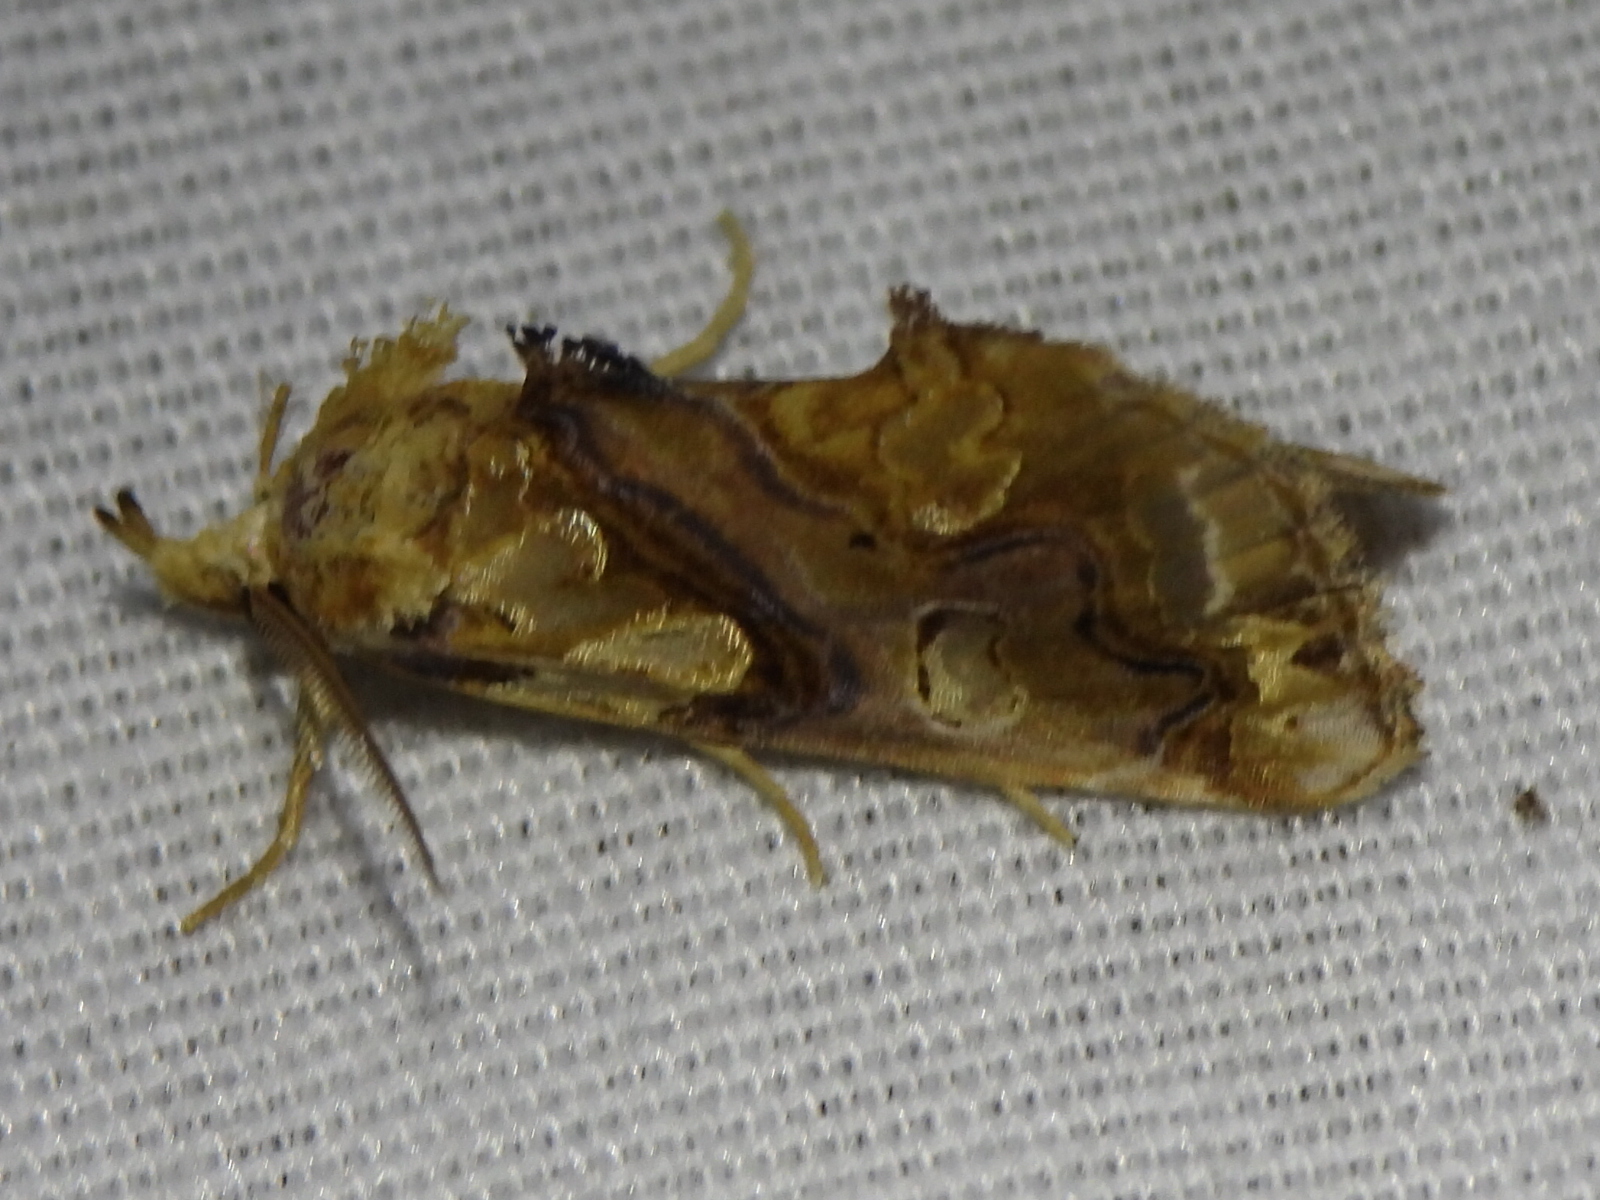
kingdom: Animalia
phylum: Arthropoda
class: Insecta
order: Lepidoptera
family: Erebidae
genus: Plusiodonta
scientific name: Plusiodonta compressipalpis
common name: Moonseed moth
